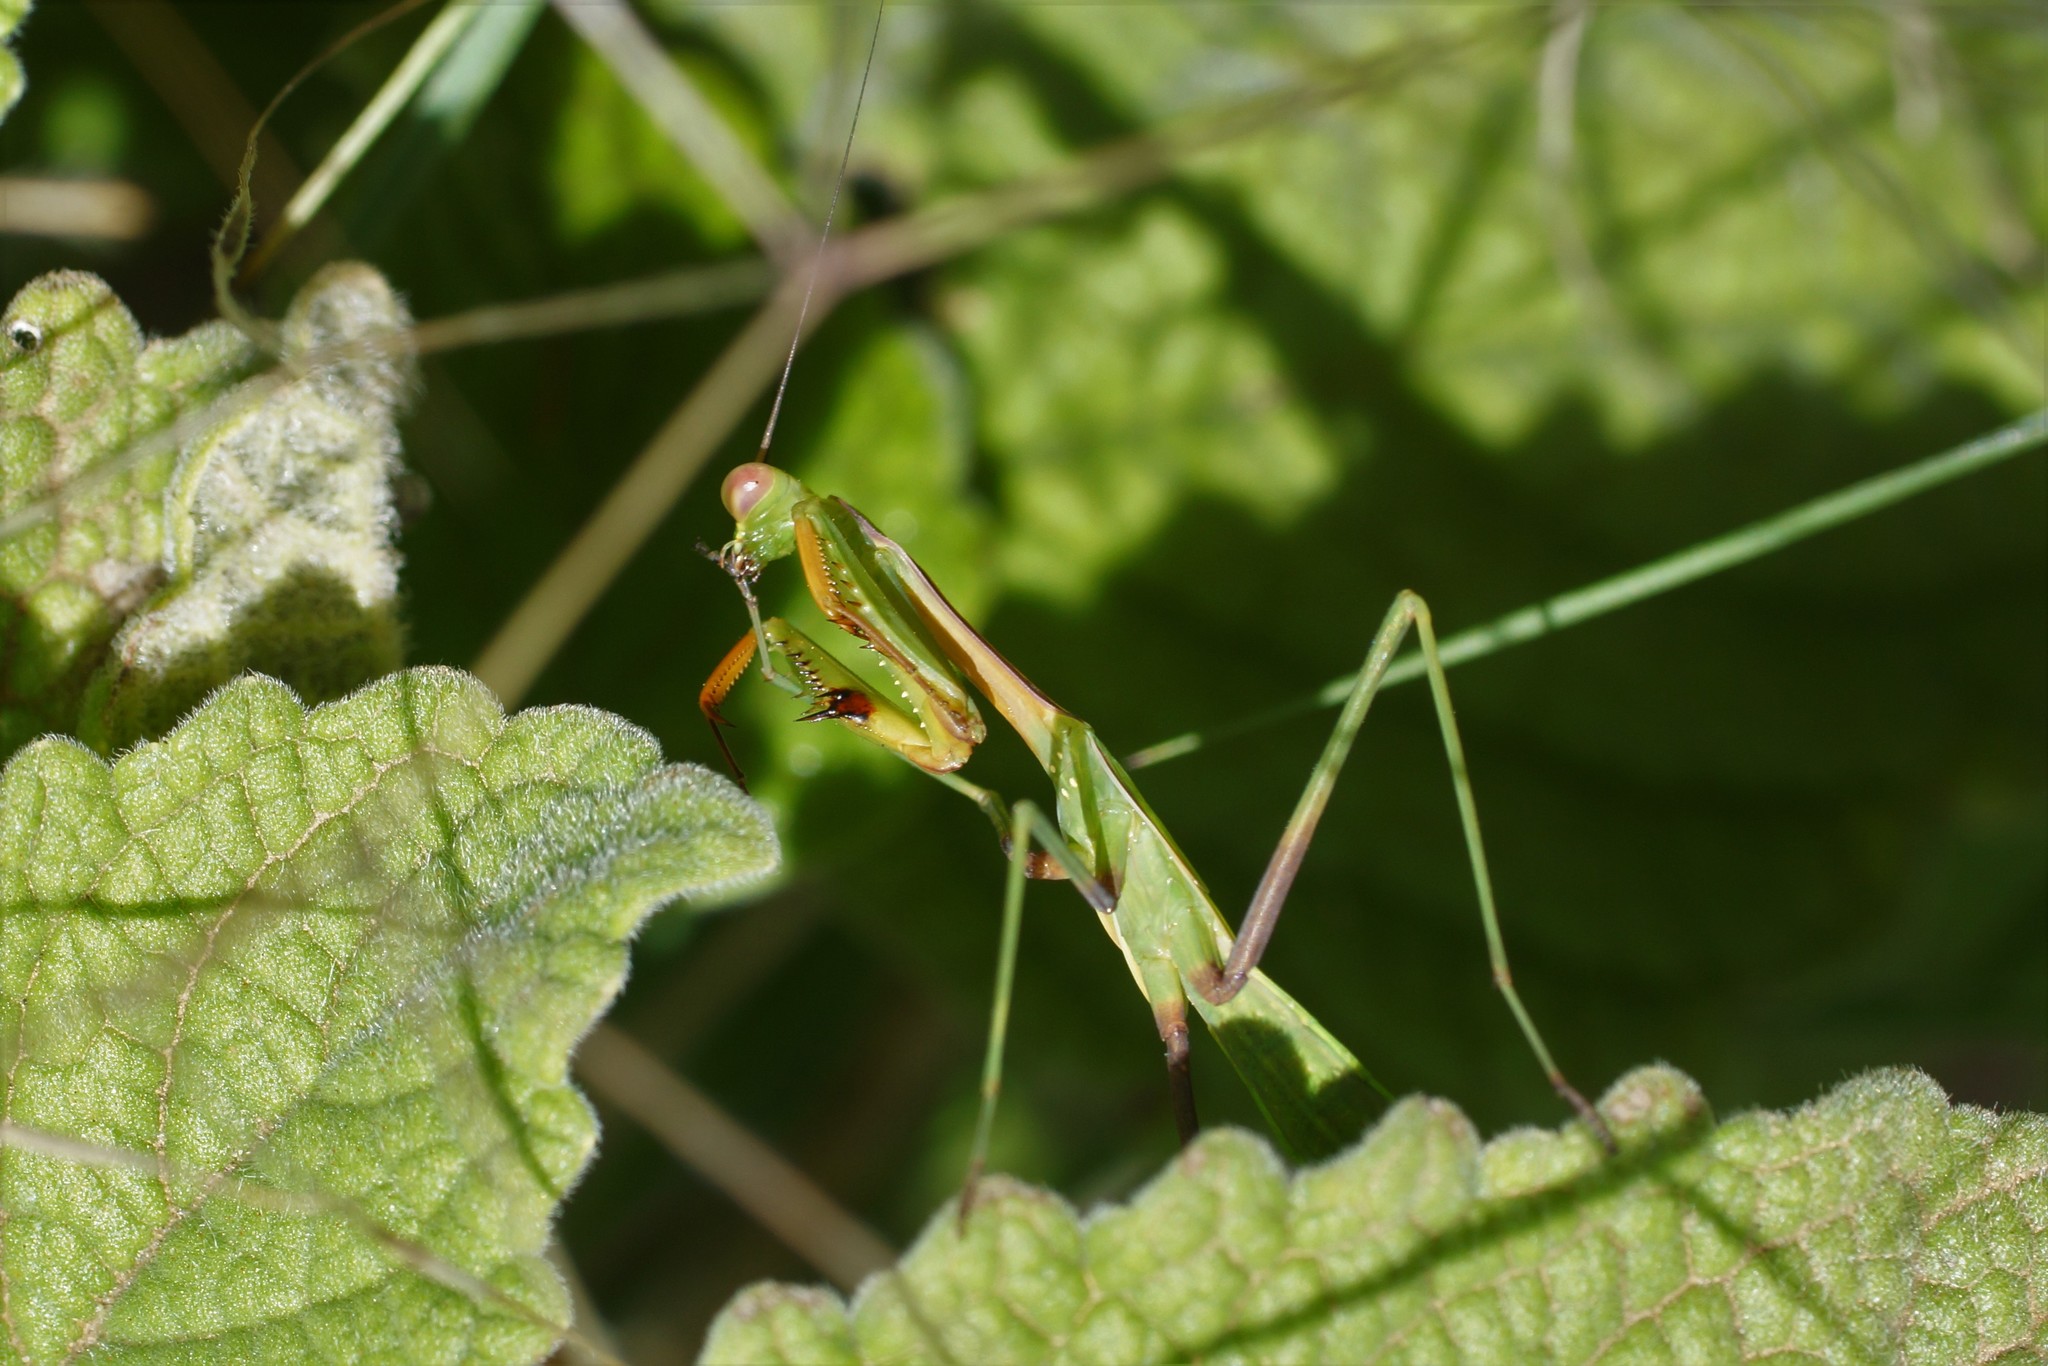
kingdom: Animalia
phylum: Arthropoda
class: Insecta
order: Mantodea
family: Mantidae
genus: Pseudomantis
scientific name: Pseudomantis albofimbriata
